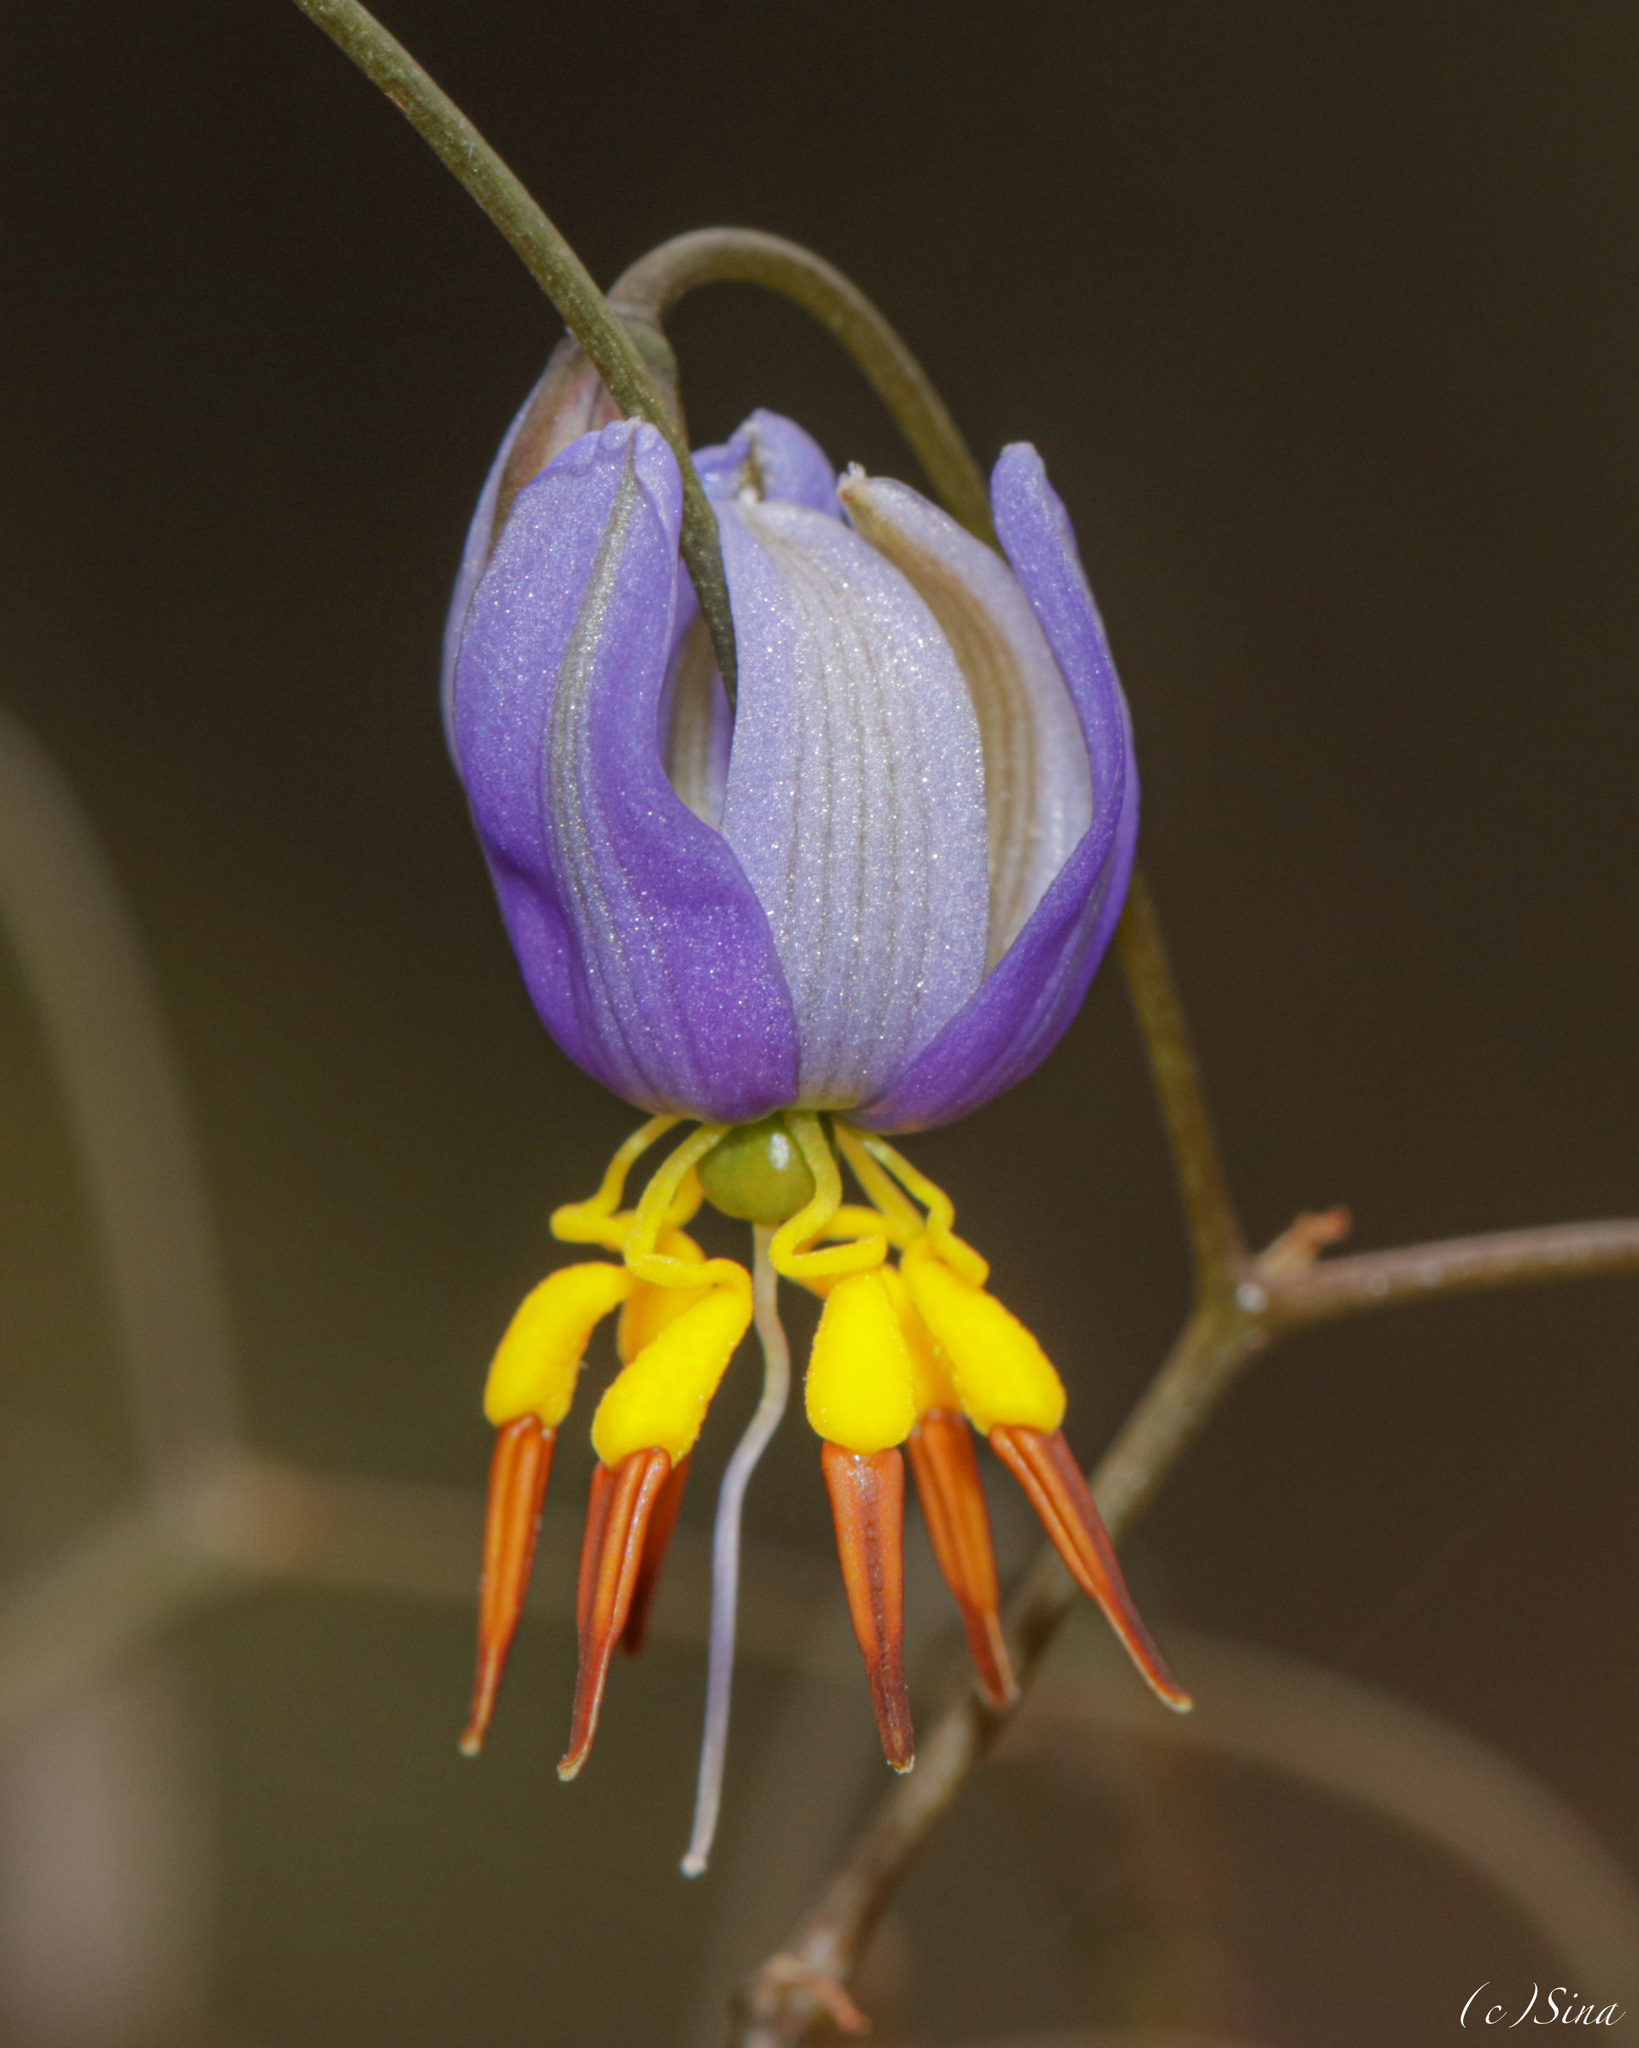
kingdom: Plantae
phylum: Tracheophyta
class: Liliopsida
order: Asparagales
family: Asphodelaceae
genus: Dianella
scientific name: Dianella revoluta
